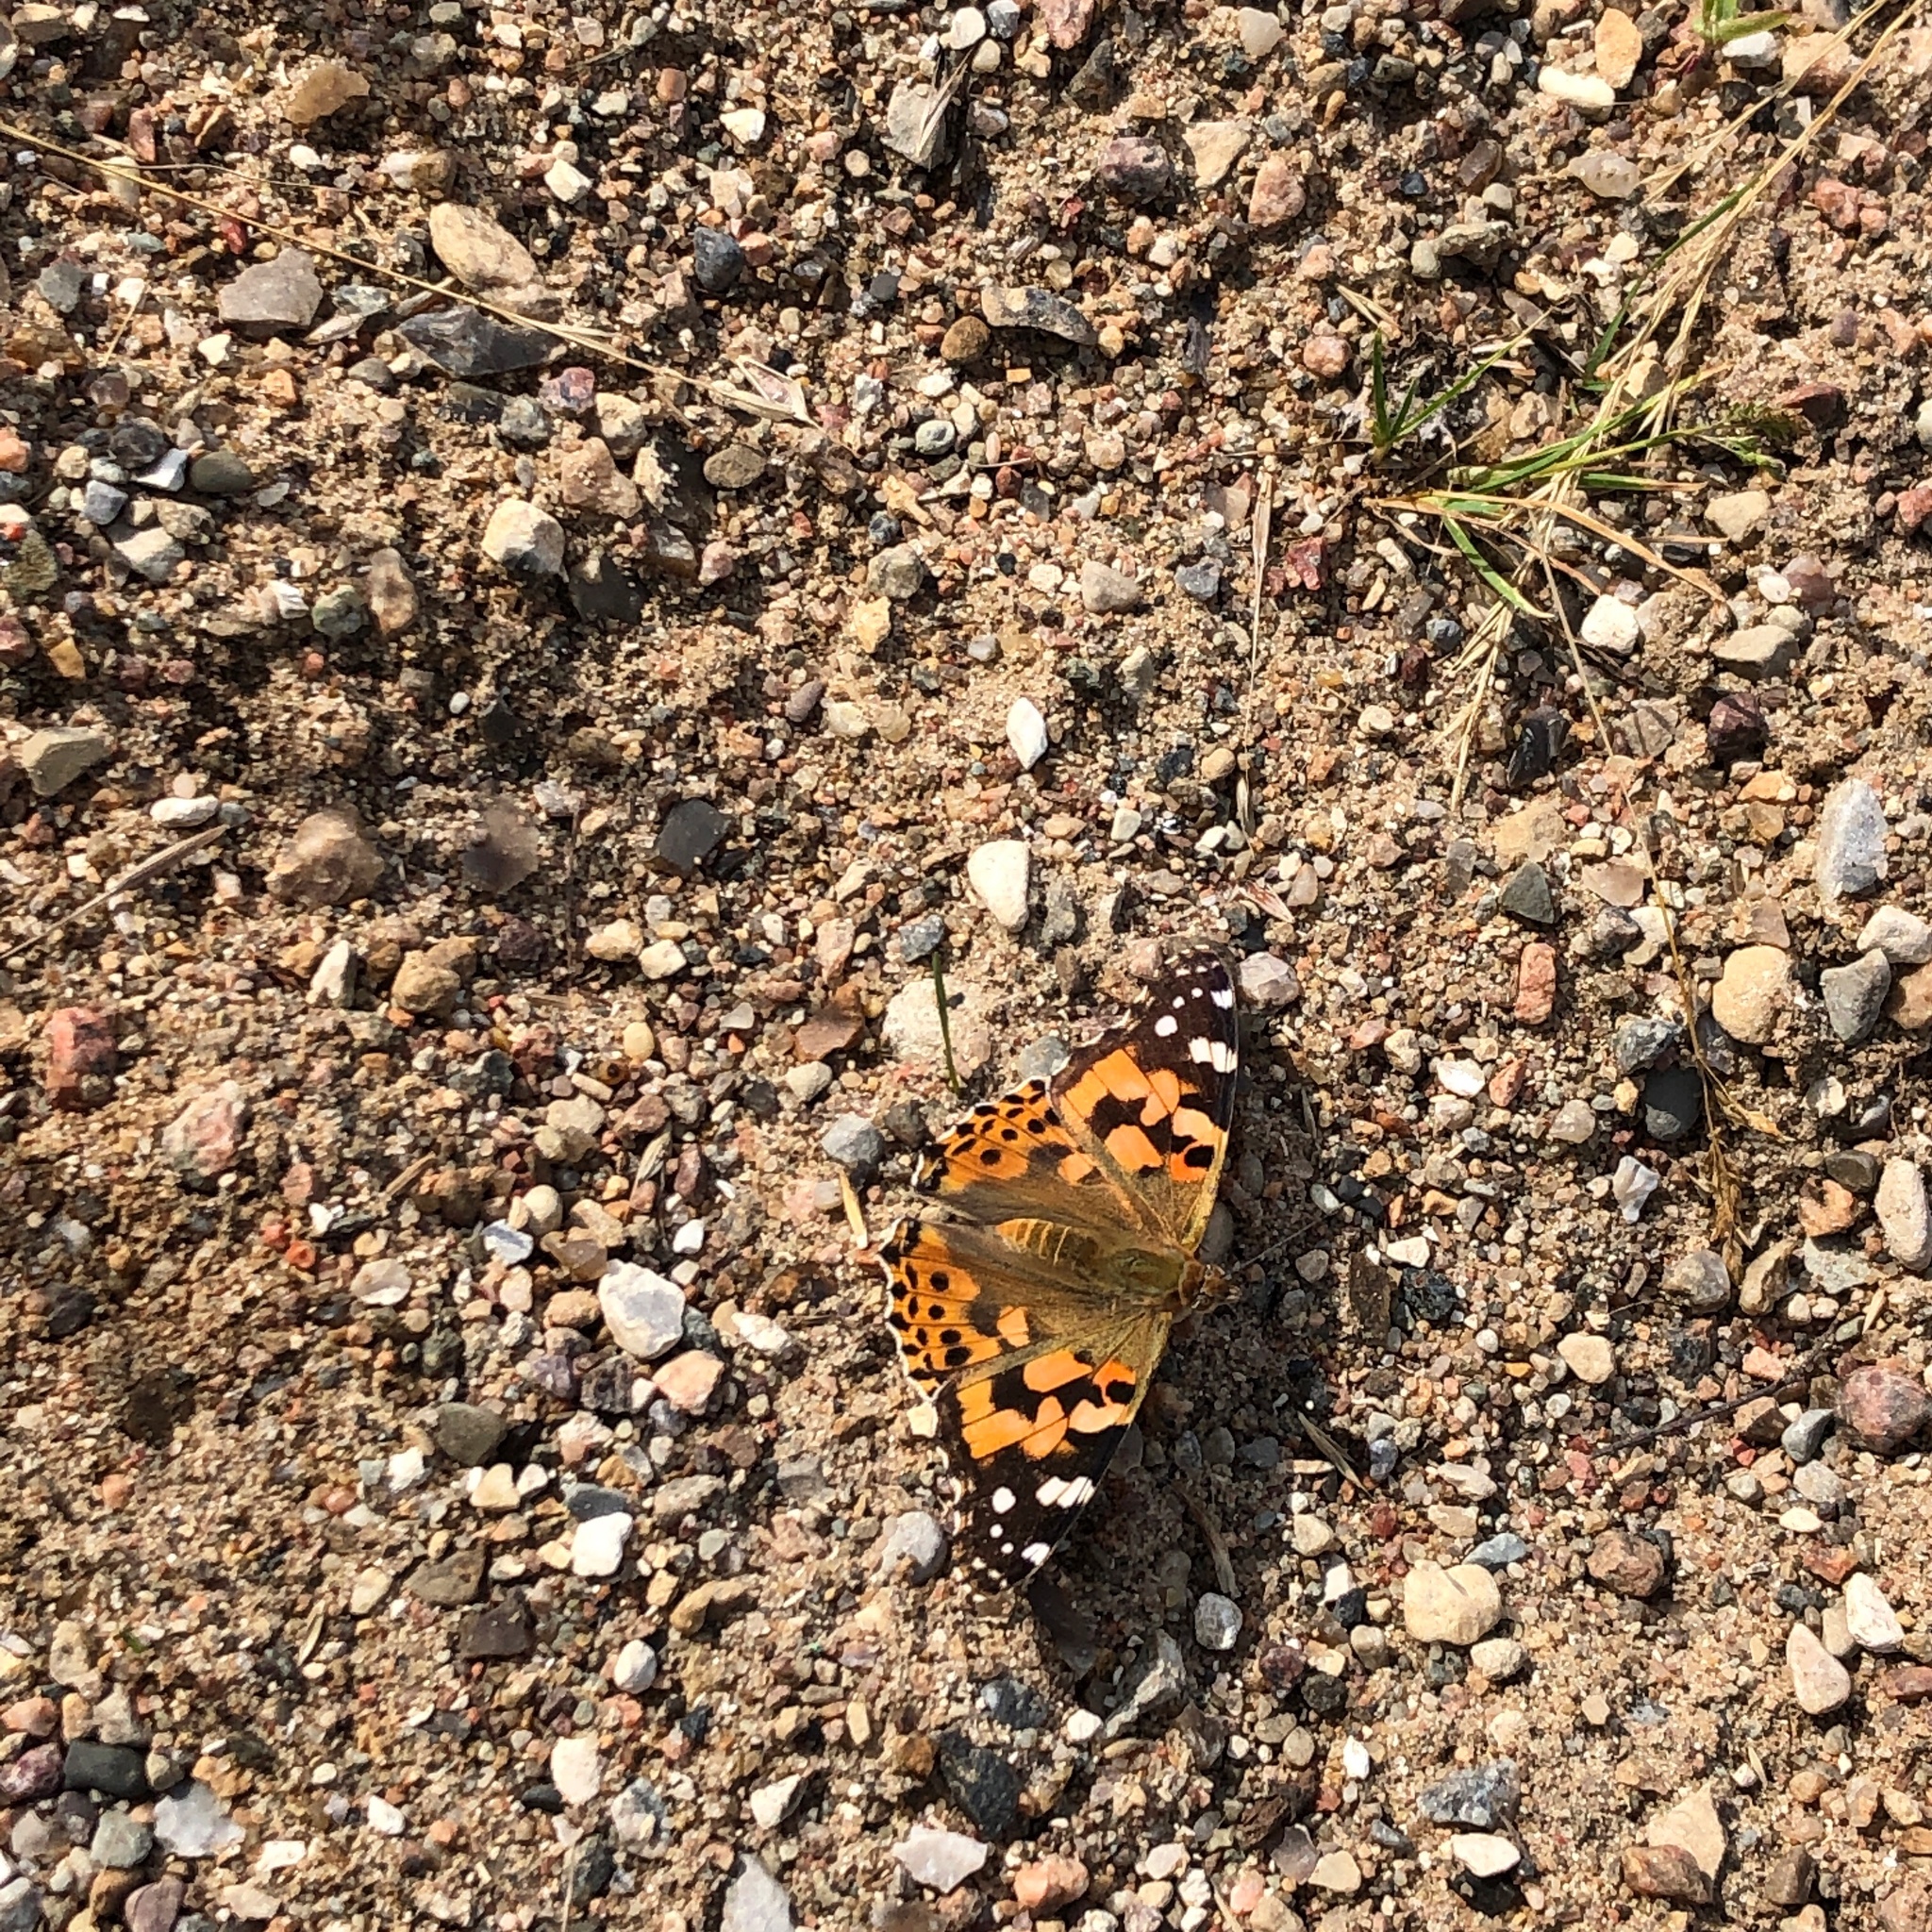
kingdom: Animalia
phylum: Arthropoda
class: Insecta
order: Lepidoptera
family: Nymphalidae
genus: Vanessa
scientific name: Vanessa cardui
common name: Painted lady
